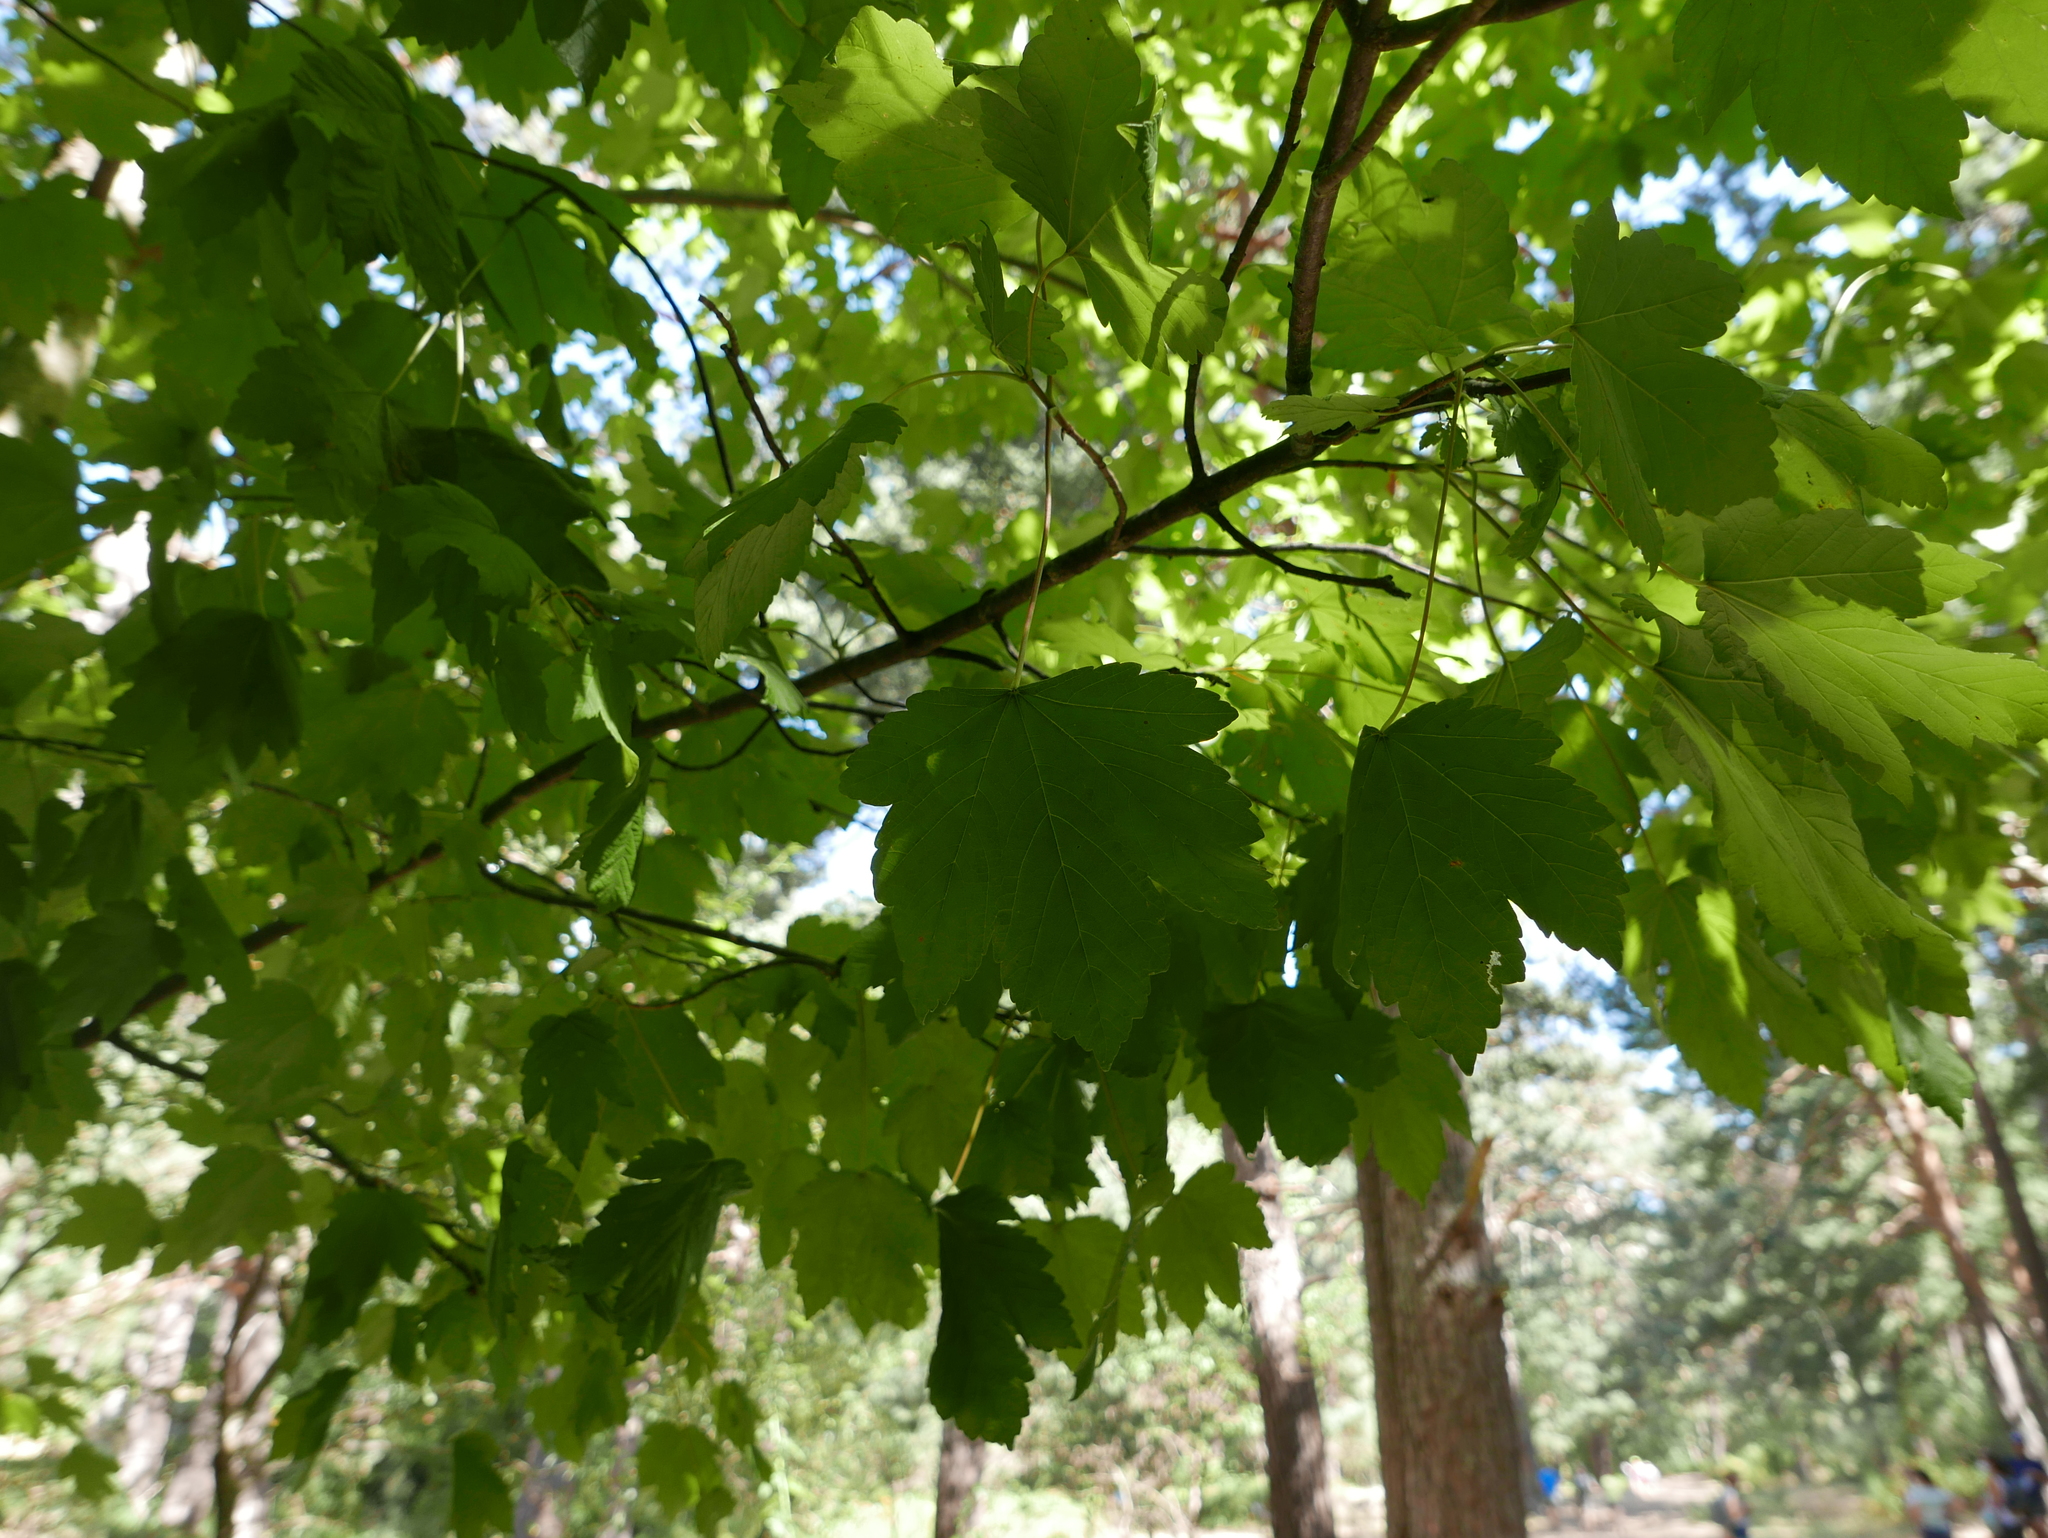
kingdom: Plantae
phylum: Tracheophyta
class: Magnoliopsida
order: Sapindales
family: Sapindaceae
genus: Acer
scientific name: Acer pseudoplatanus
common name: Sycamore
